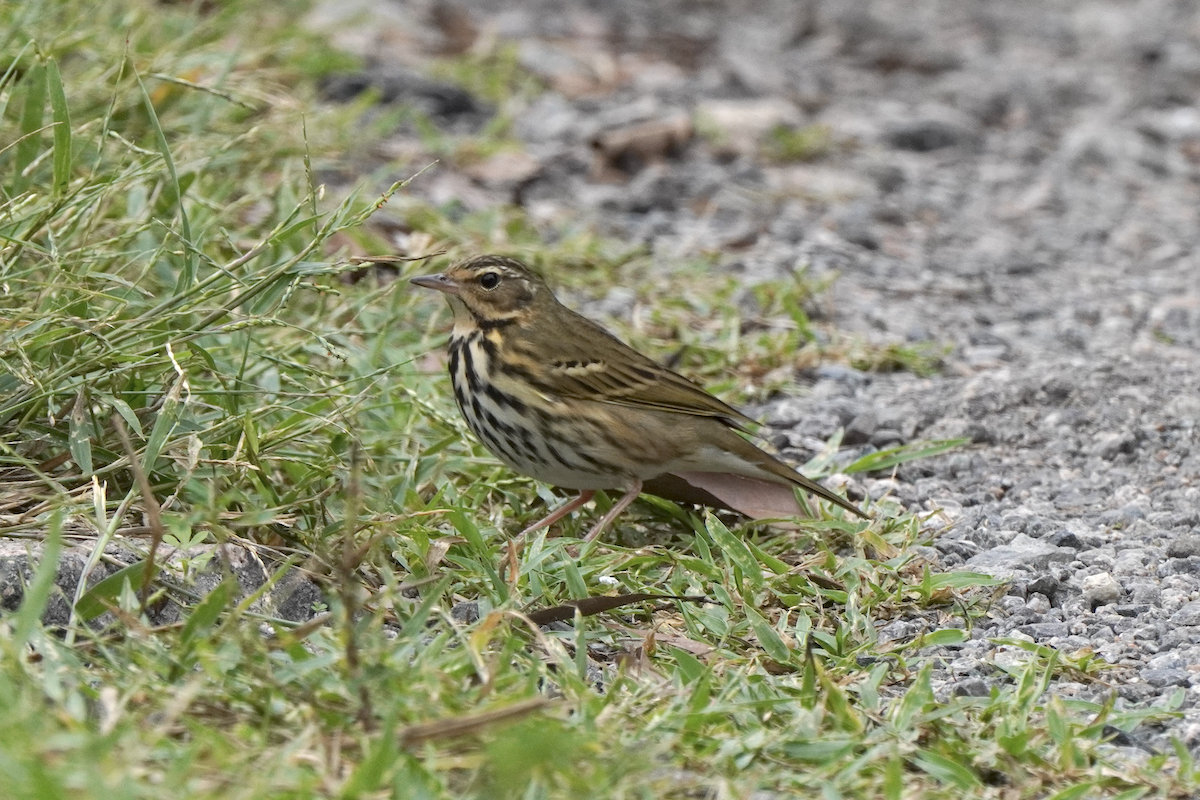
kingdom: Animalia
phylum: Chordata
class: Aves
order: Passeriformes
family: Motacillidae
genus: Anthus
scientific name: Anthus hodgsoni
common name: Olive-backed pipit
